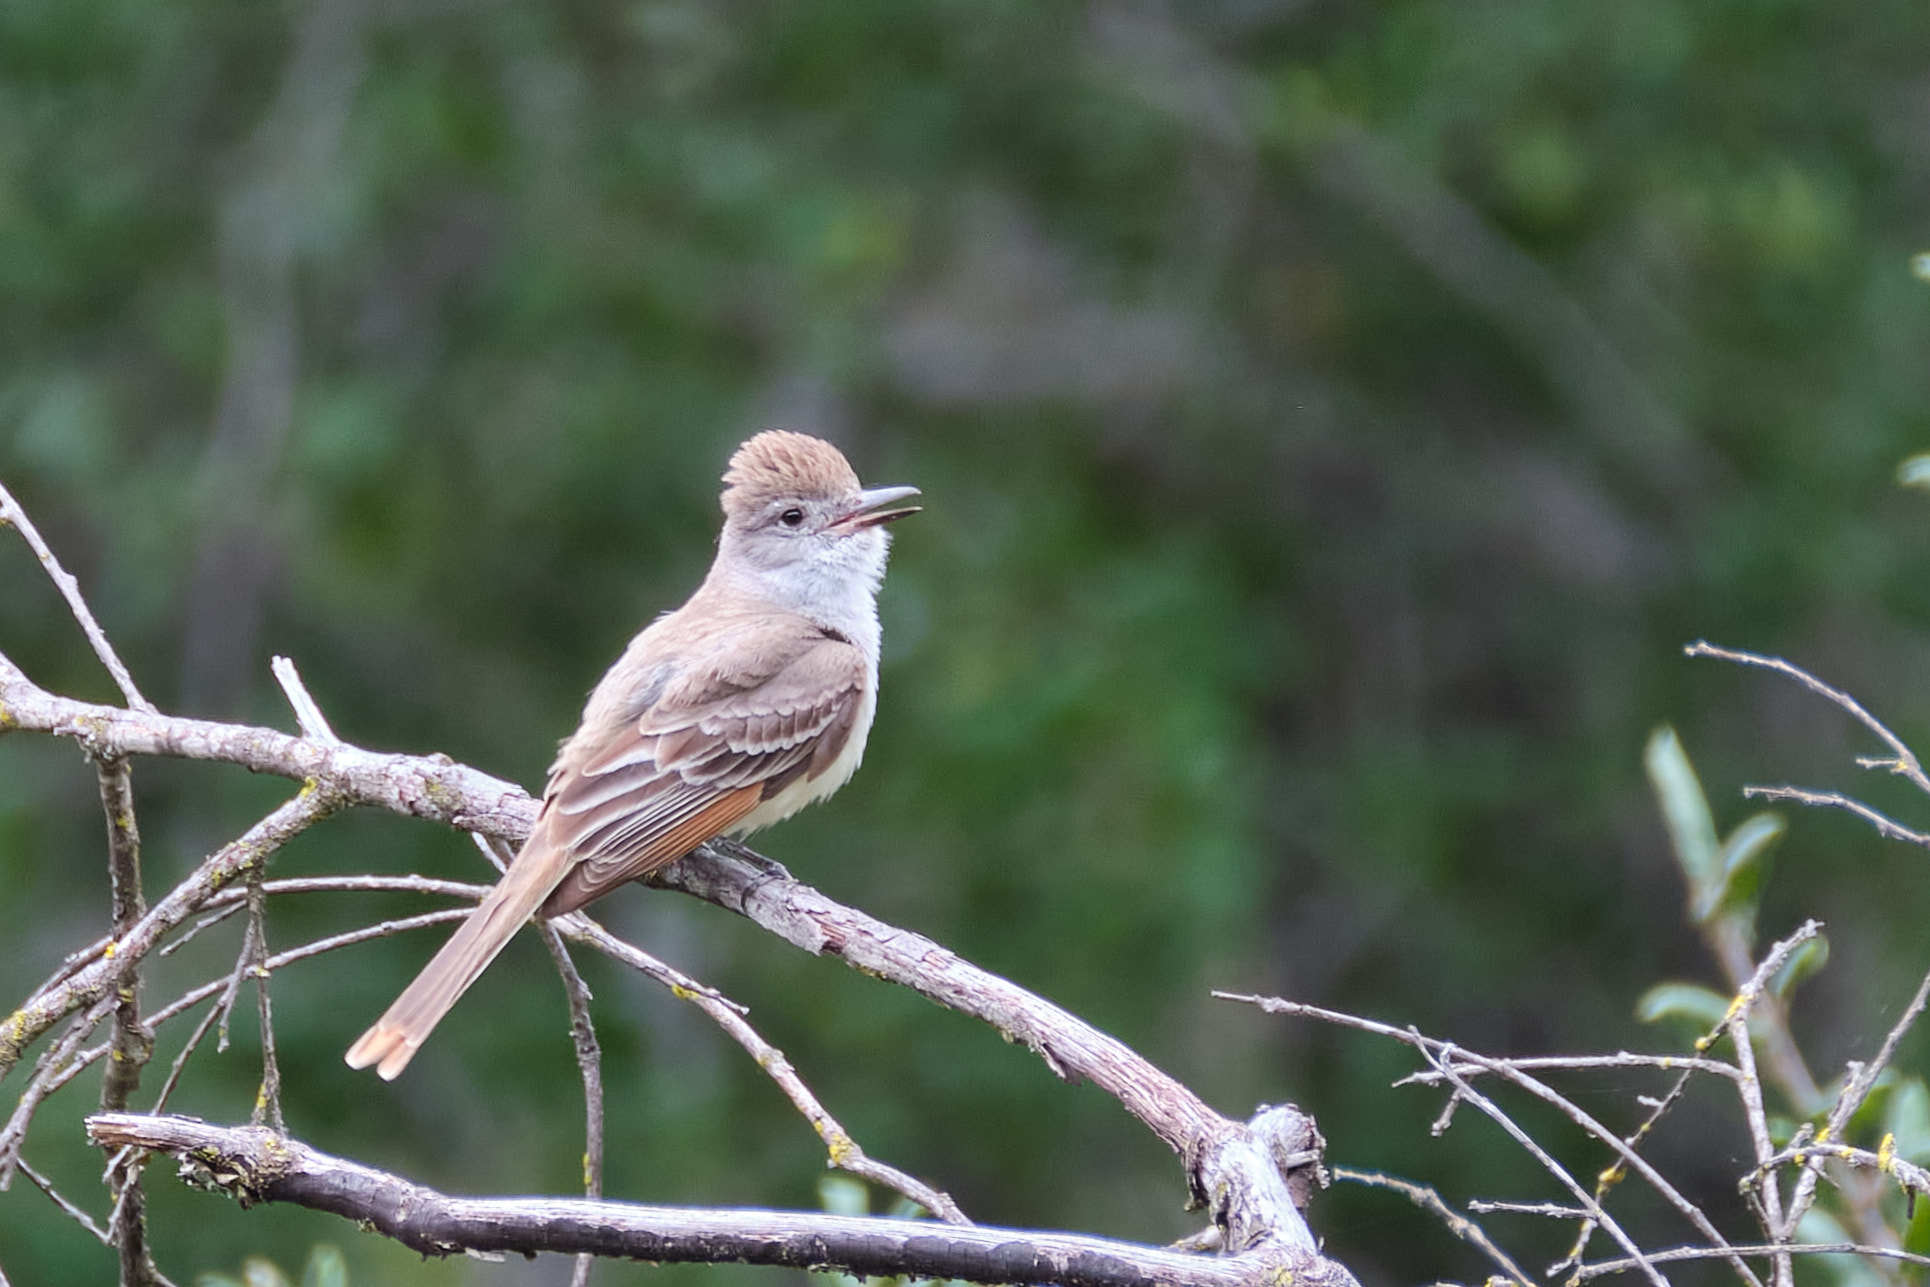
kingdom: Animalia
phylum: Chordata
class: Aves
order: Passeriformes
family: Tyrannidae
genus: Myiarchus
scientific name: Myiarchus cinerascens
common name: Ash-throated flycatcher
